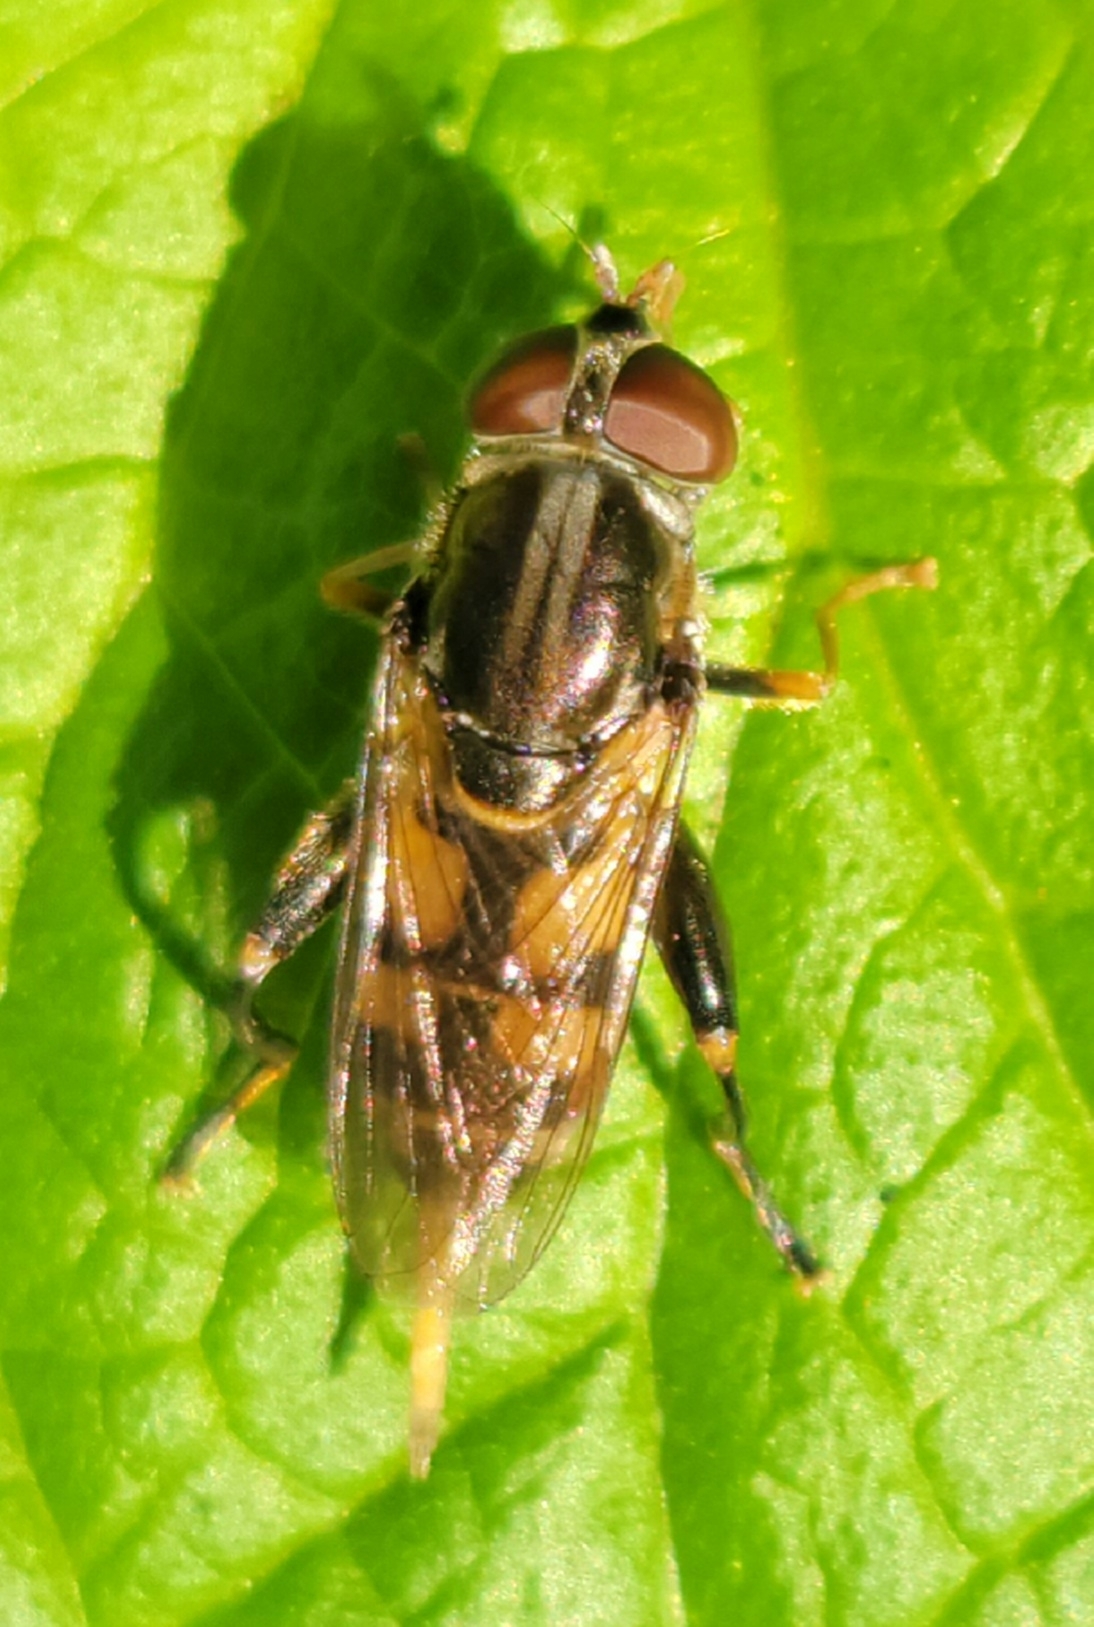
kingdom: Animalia
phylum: Arthropoda
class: Insecta
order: Diptera
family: Syrphidae
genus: Tropidia
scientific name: Tropidia quadrata
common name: Common thick-legged fly
